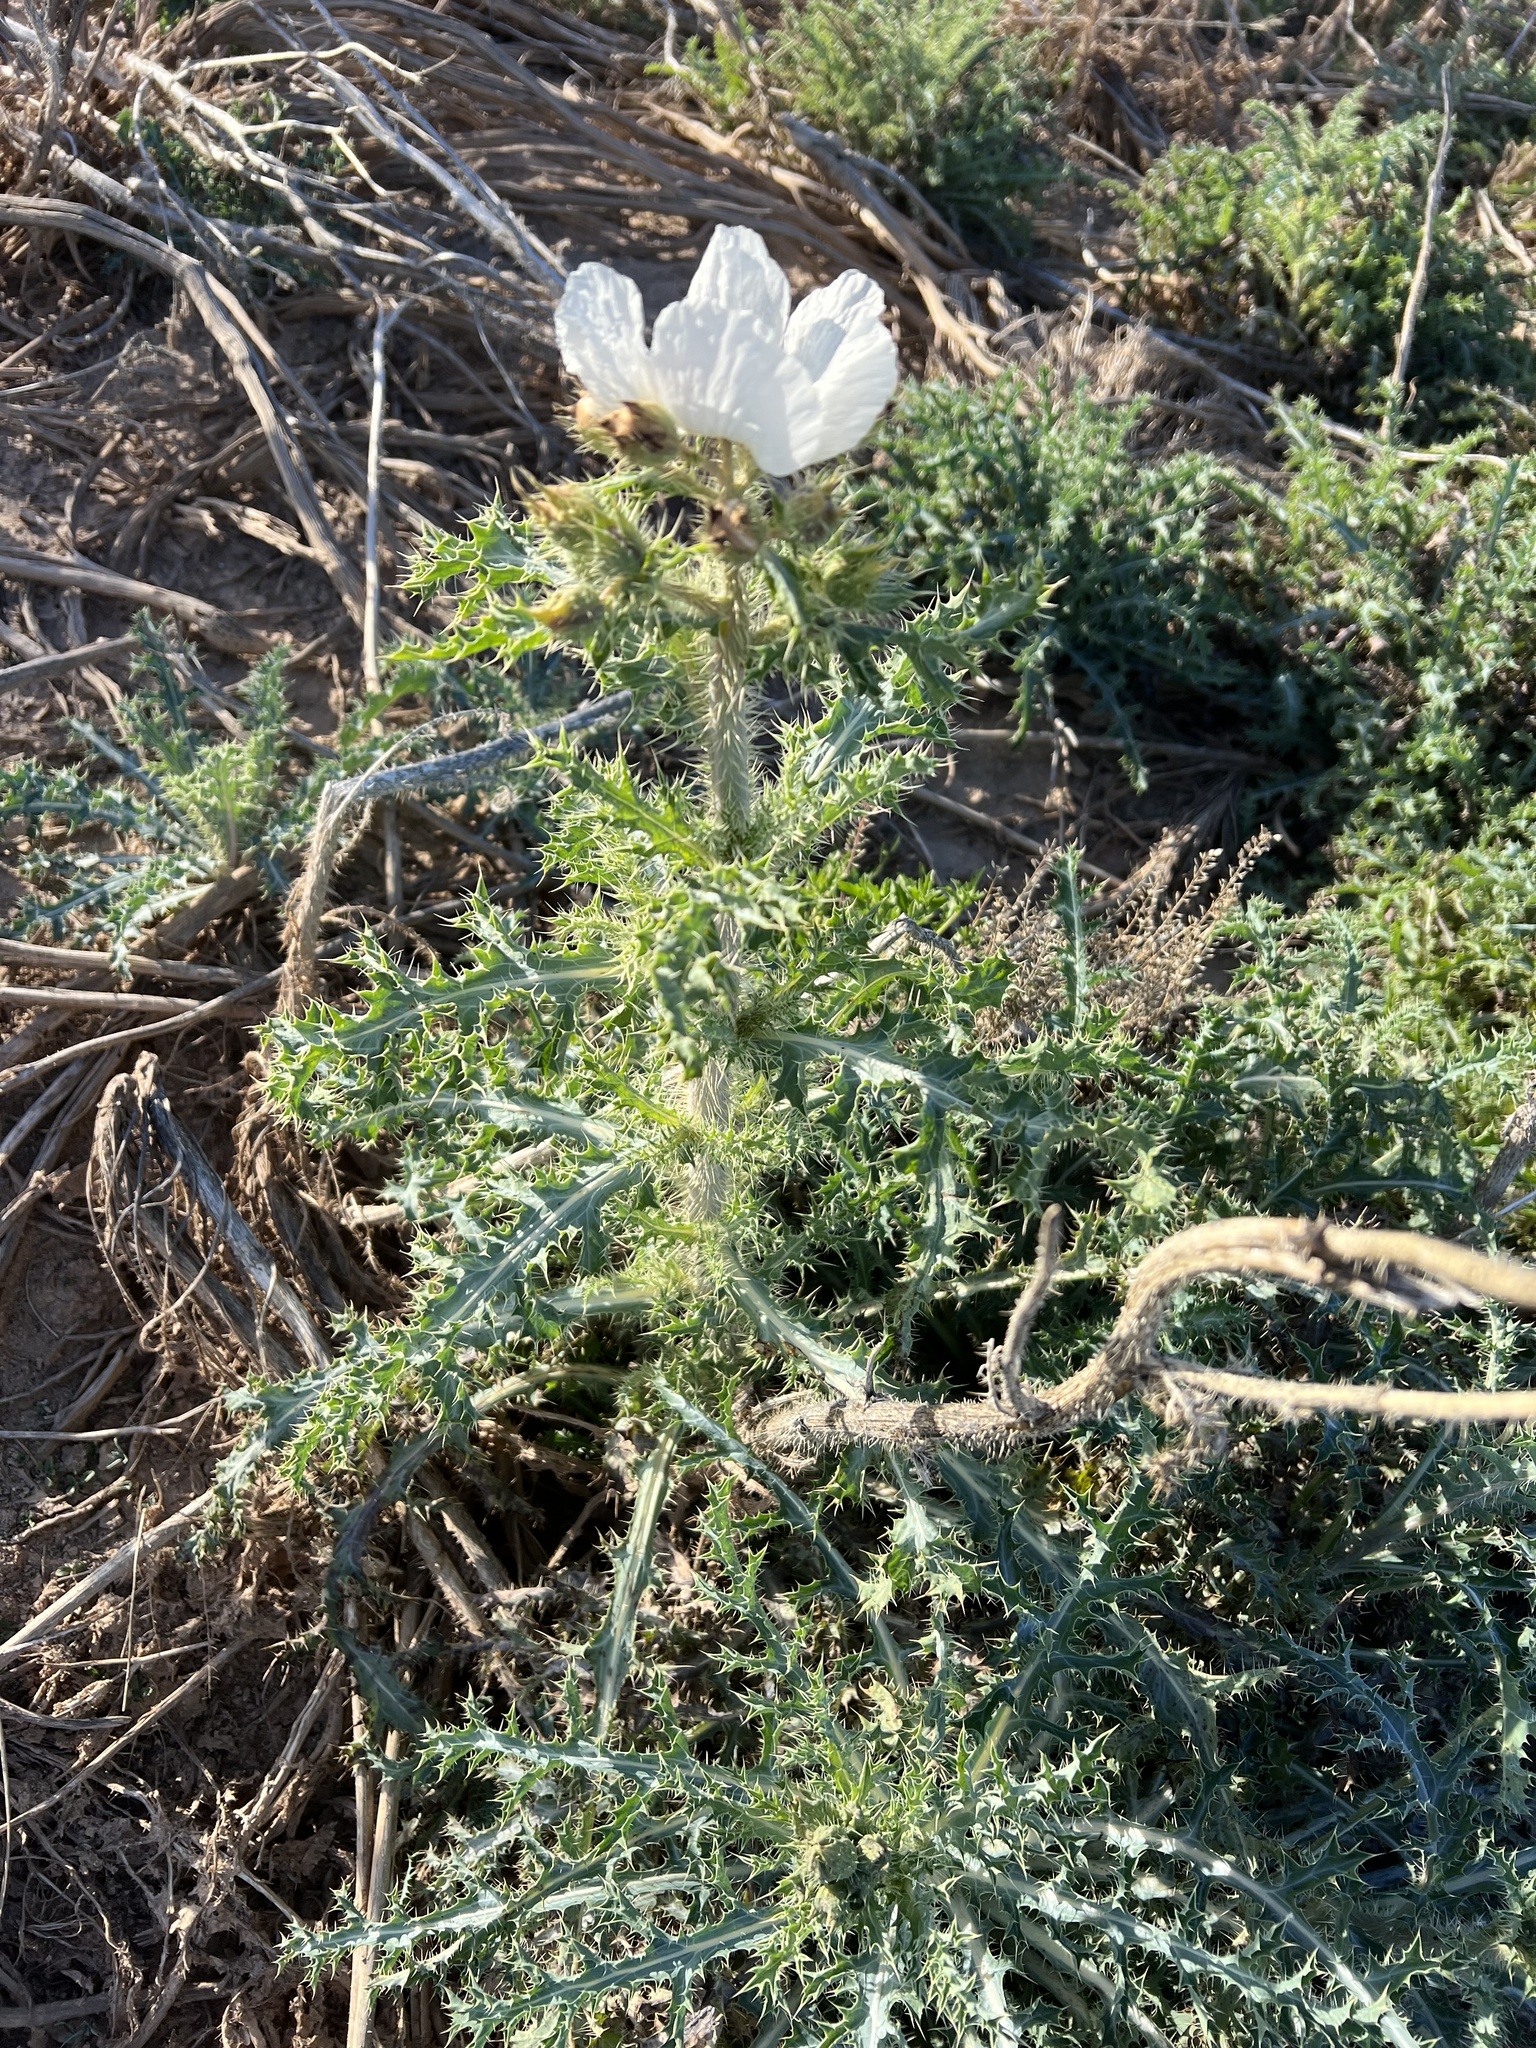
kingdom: Plantae
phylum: Tracheophyta
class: Magnoliopsida
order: Ranunculales
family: Papaveraceae
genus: Argemone
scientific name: Argemone munita
